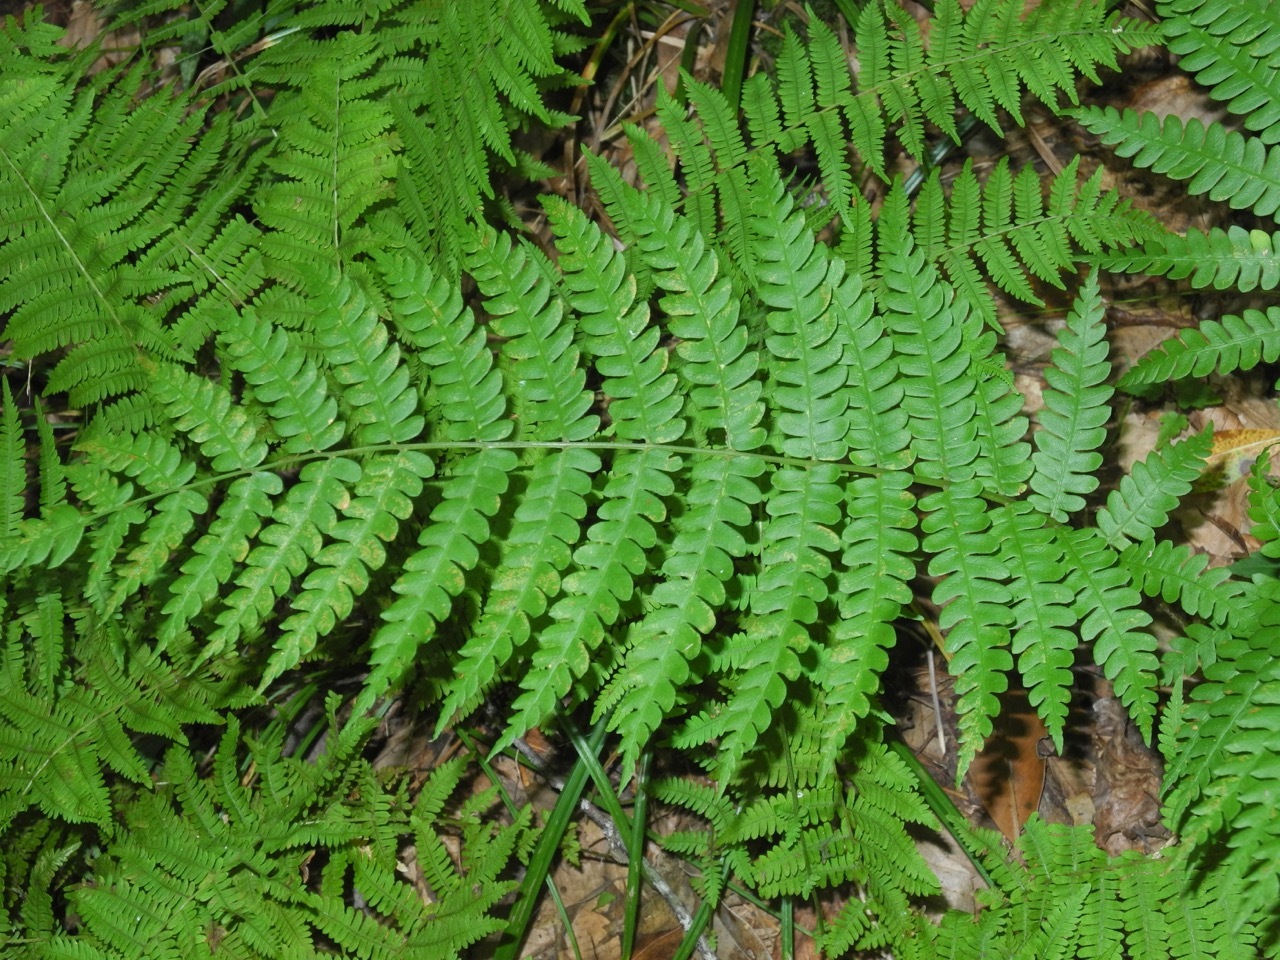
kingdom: Plantae
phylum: Tracheophyta
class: Polypodiopsida
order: Osmundales
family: Osmundaceae
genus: Osmundastrum
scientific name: Osmundastrum cinnamomeum
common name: Cinnamon fern
